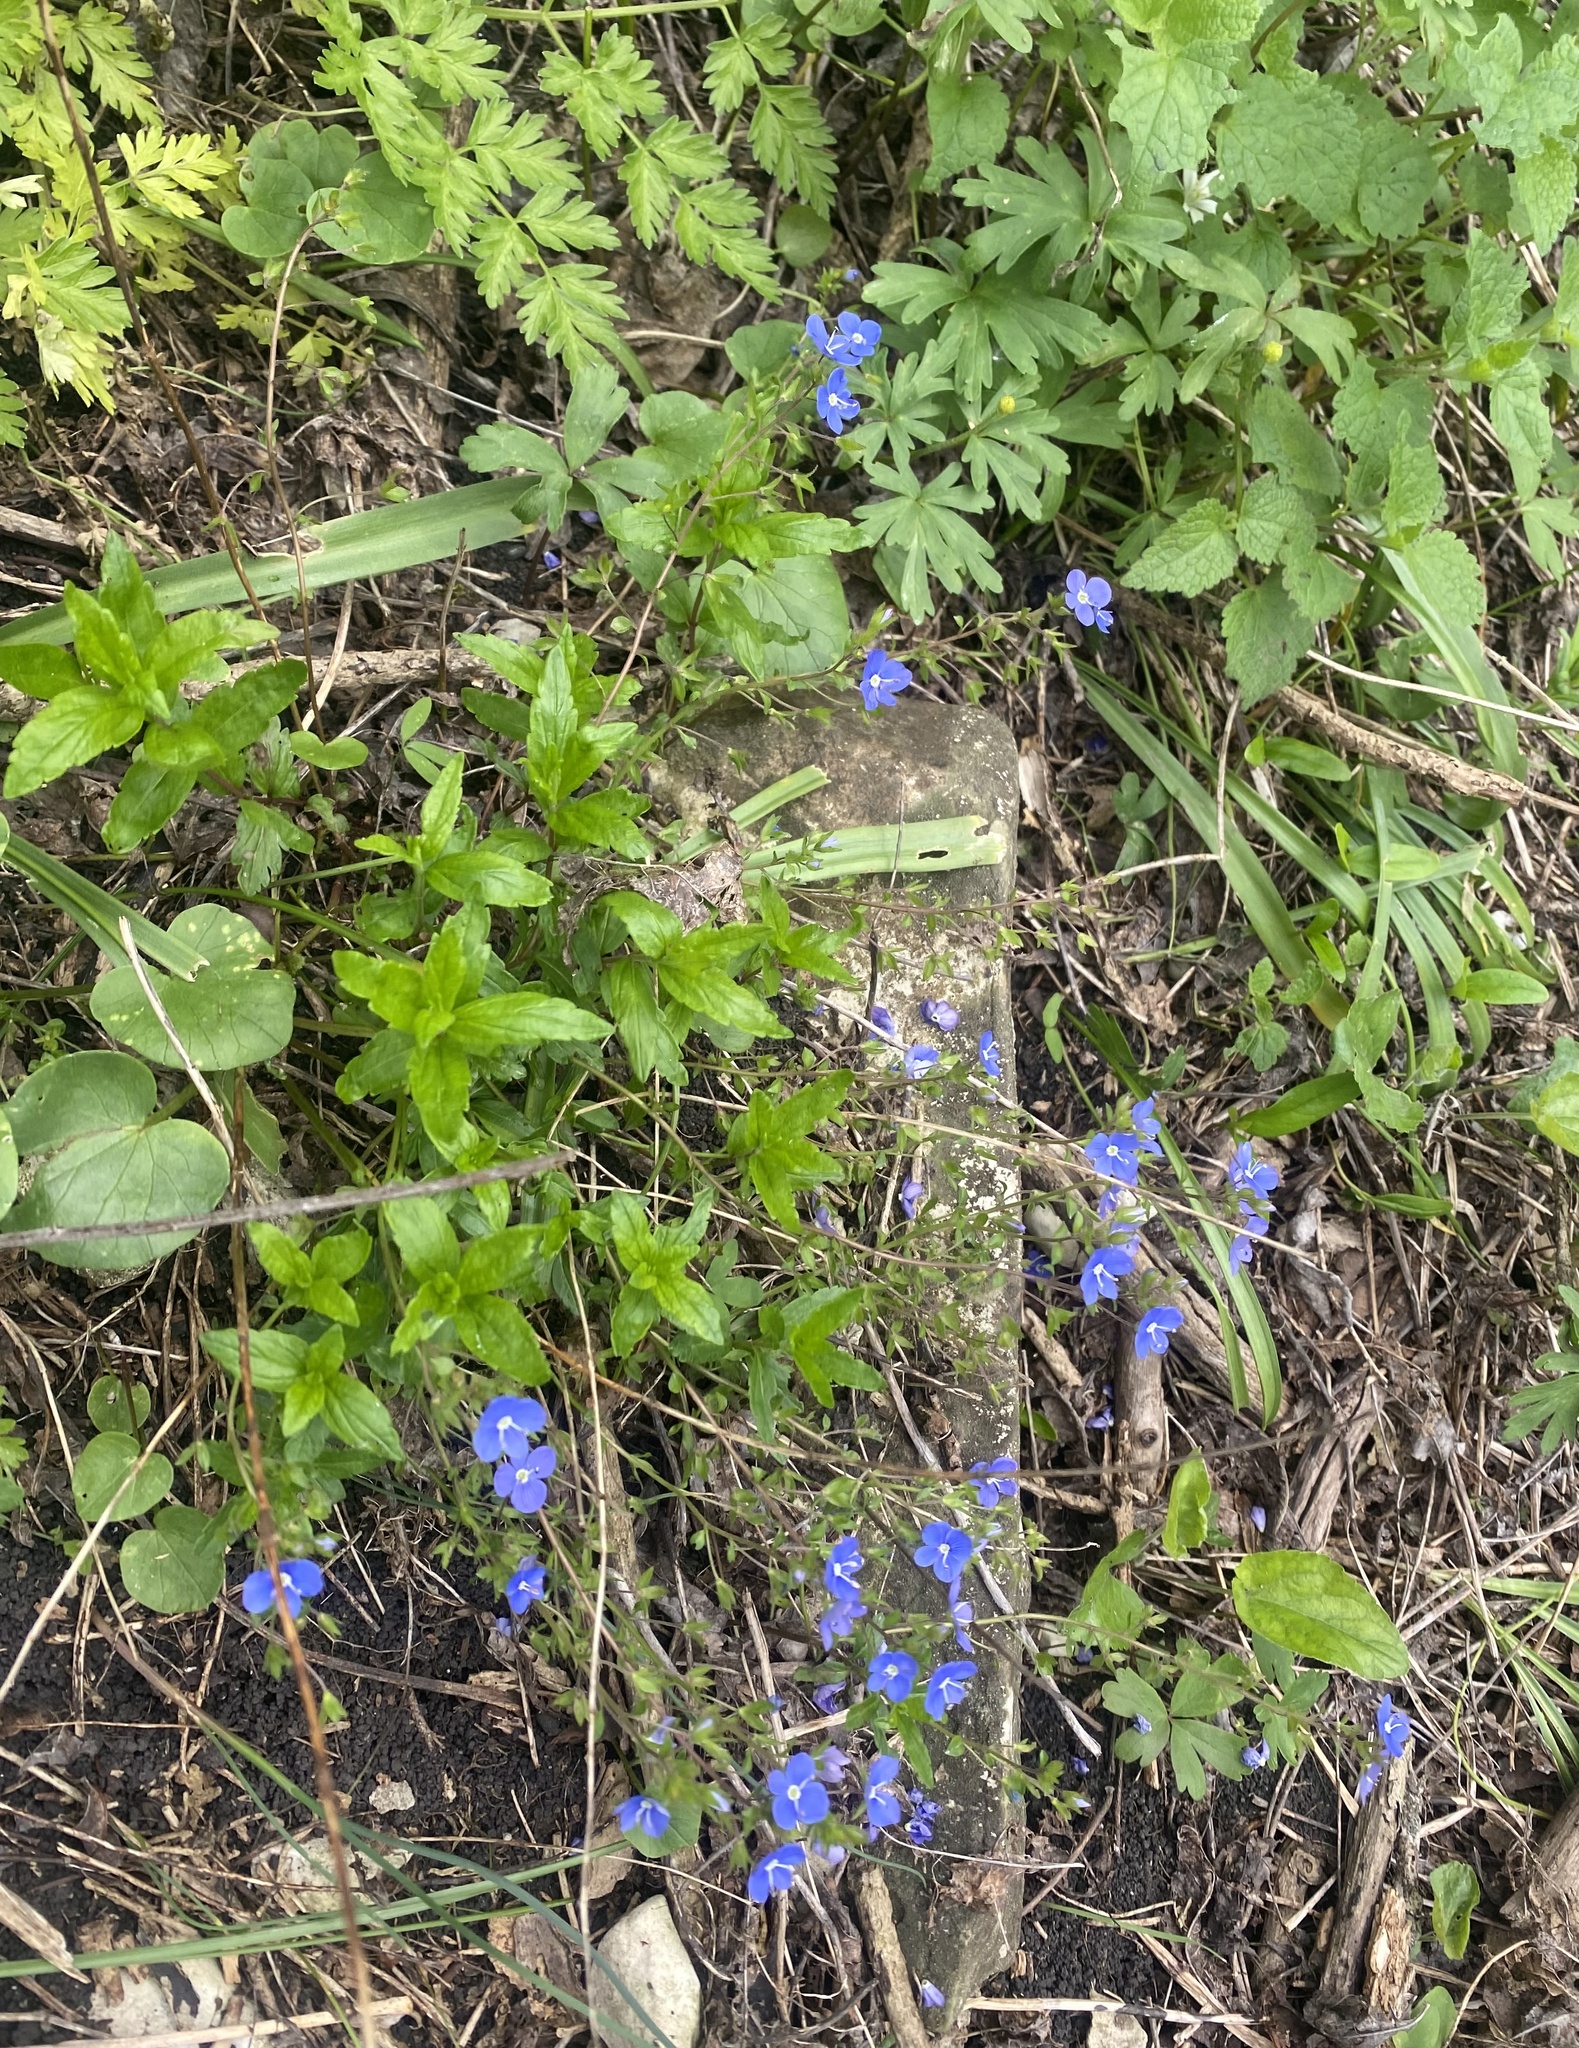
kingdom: Plantae
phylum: Tracheophyta
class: Magnoliopsida
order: Lamiales
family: Plantaginaceae
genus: Veronica
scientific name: Veronica
